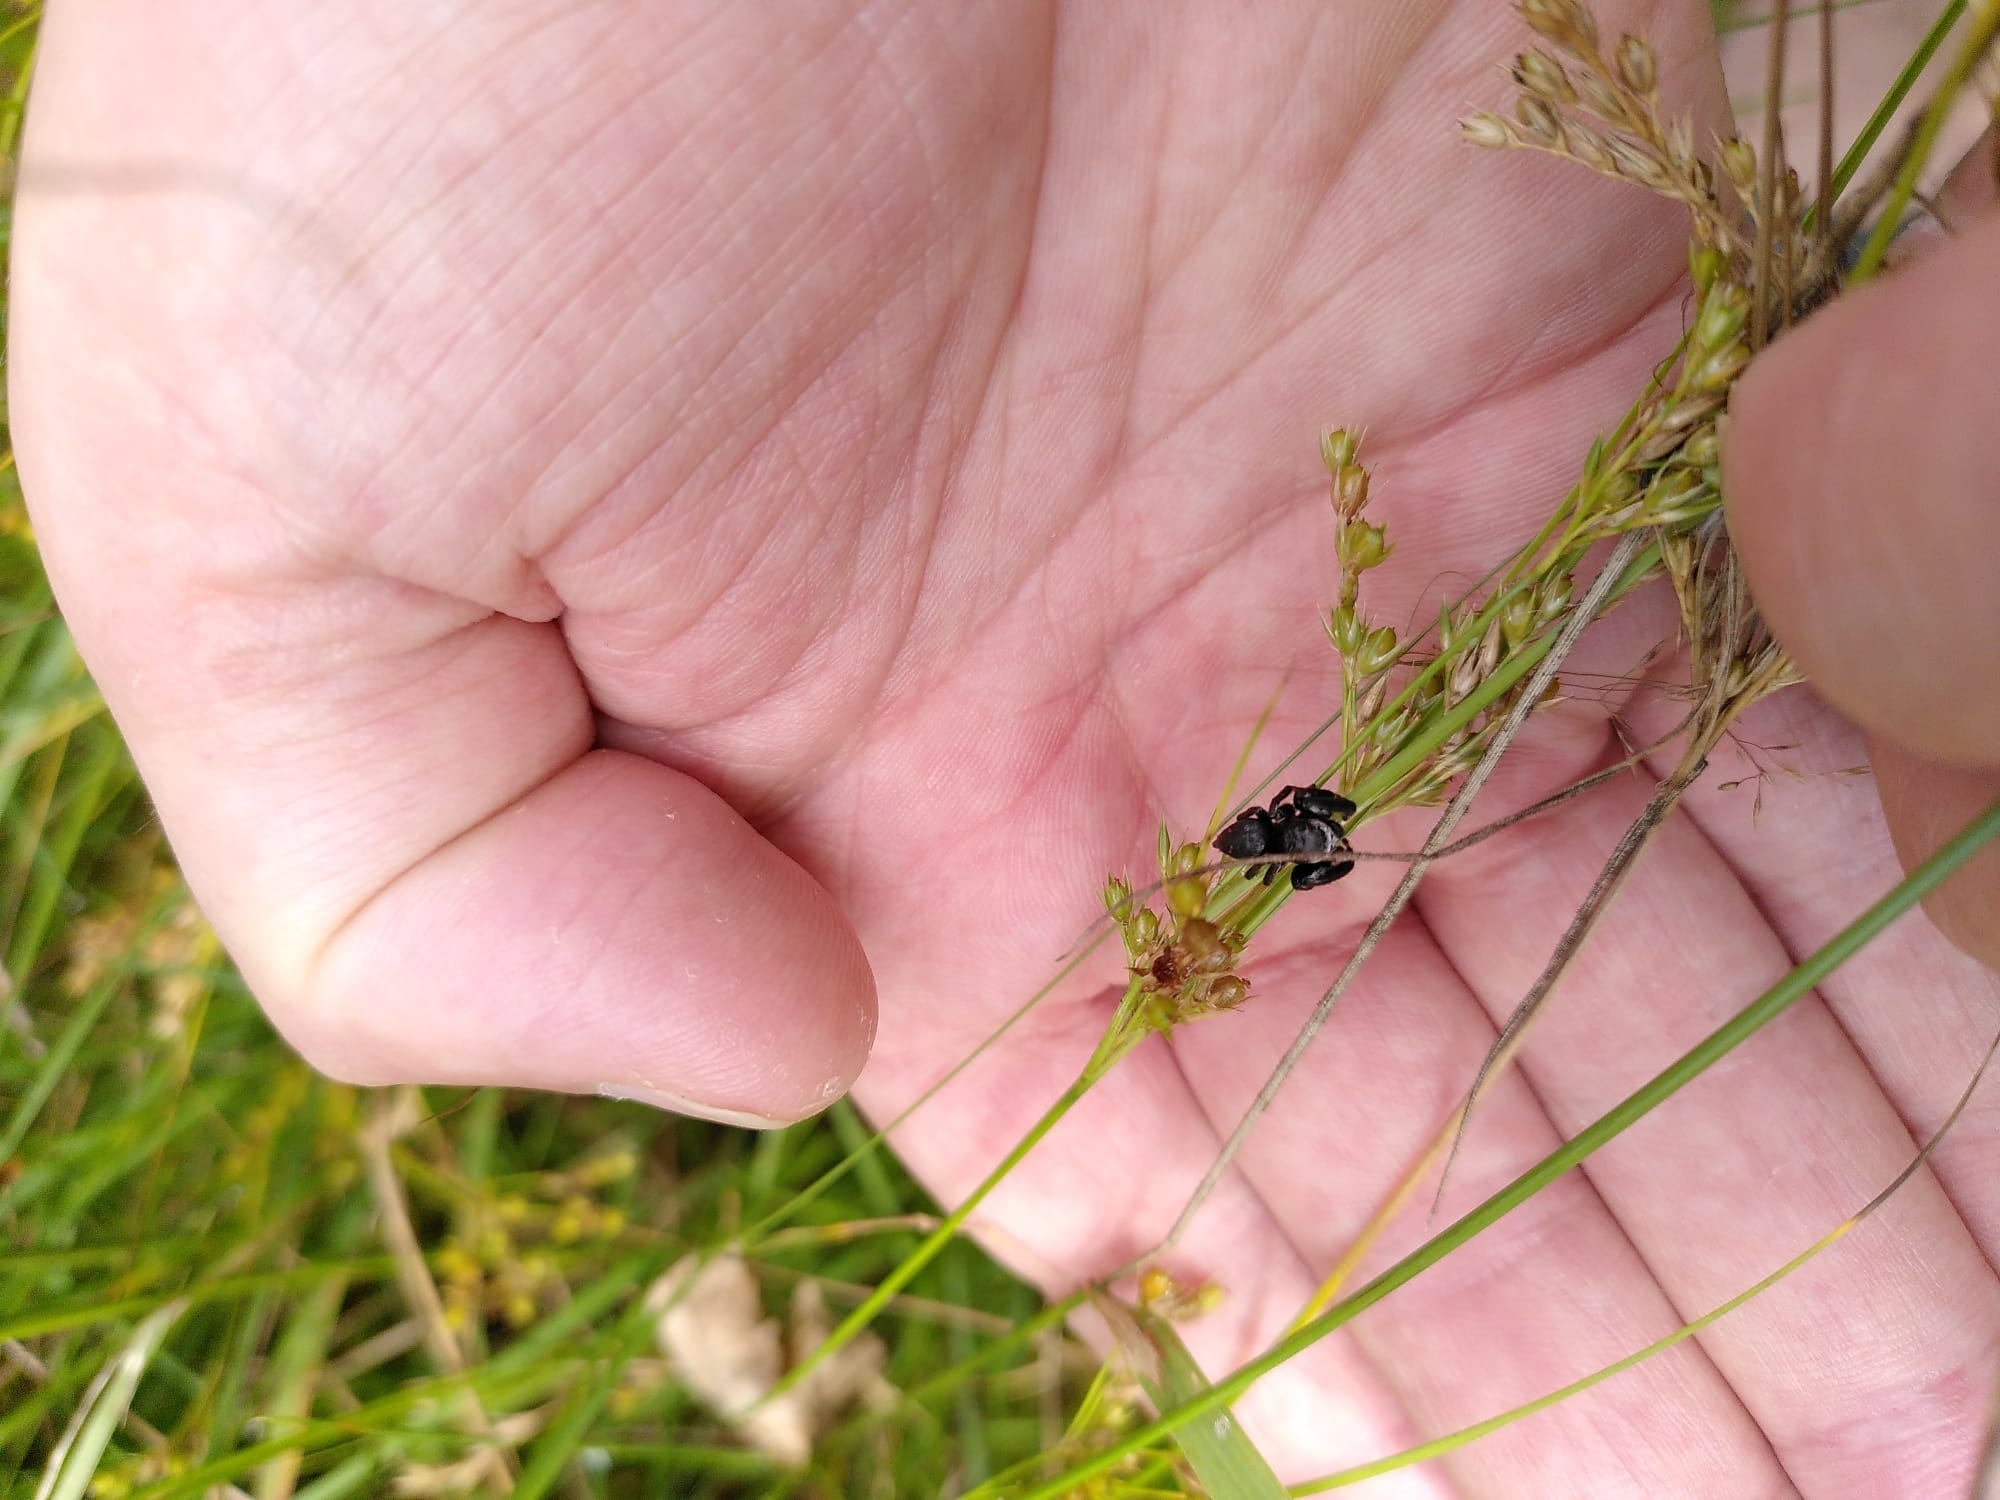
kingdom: Animalia
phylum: Arthropoda
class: Arachnida
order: Araneae
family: Salticidae
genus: Evarcha
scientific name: Evarcha arcuata
